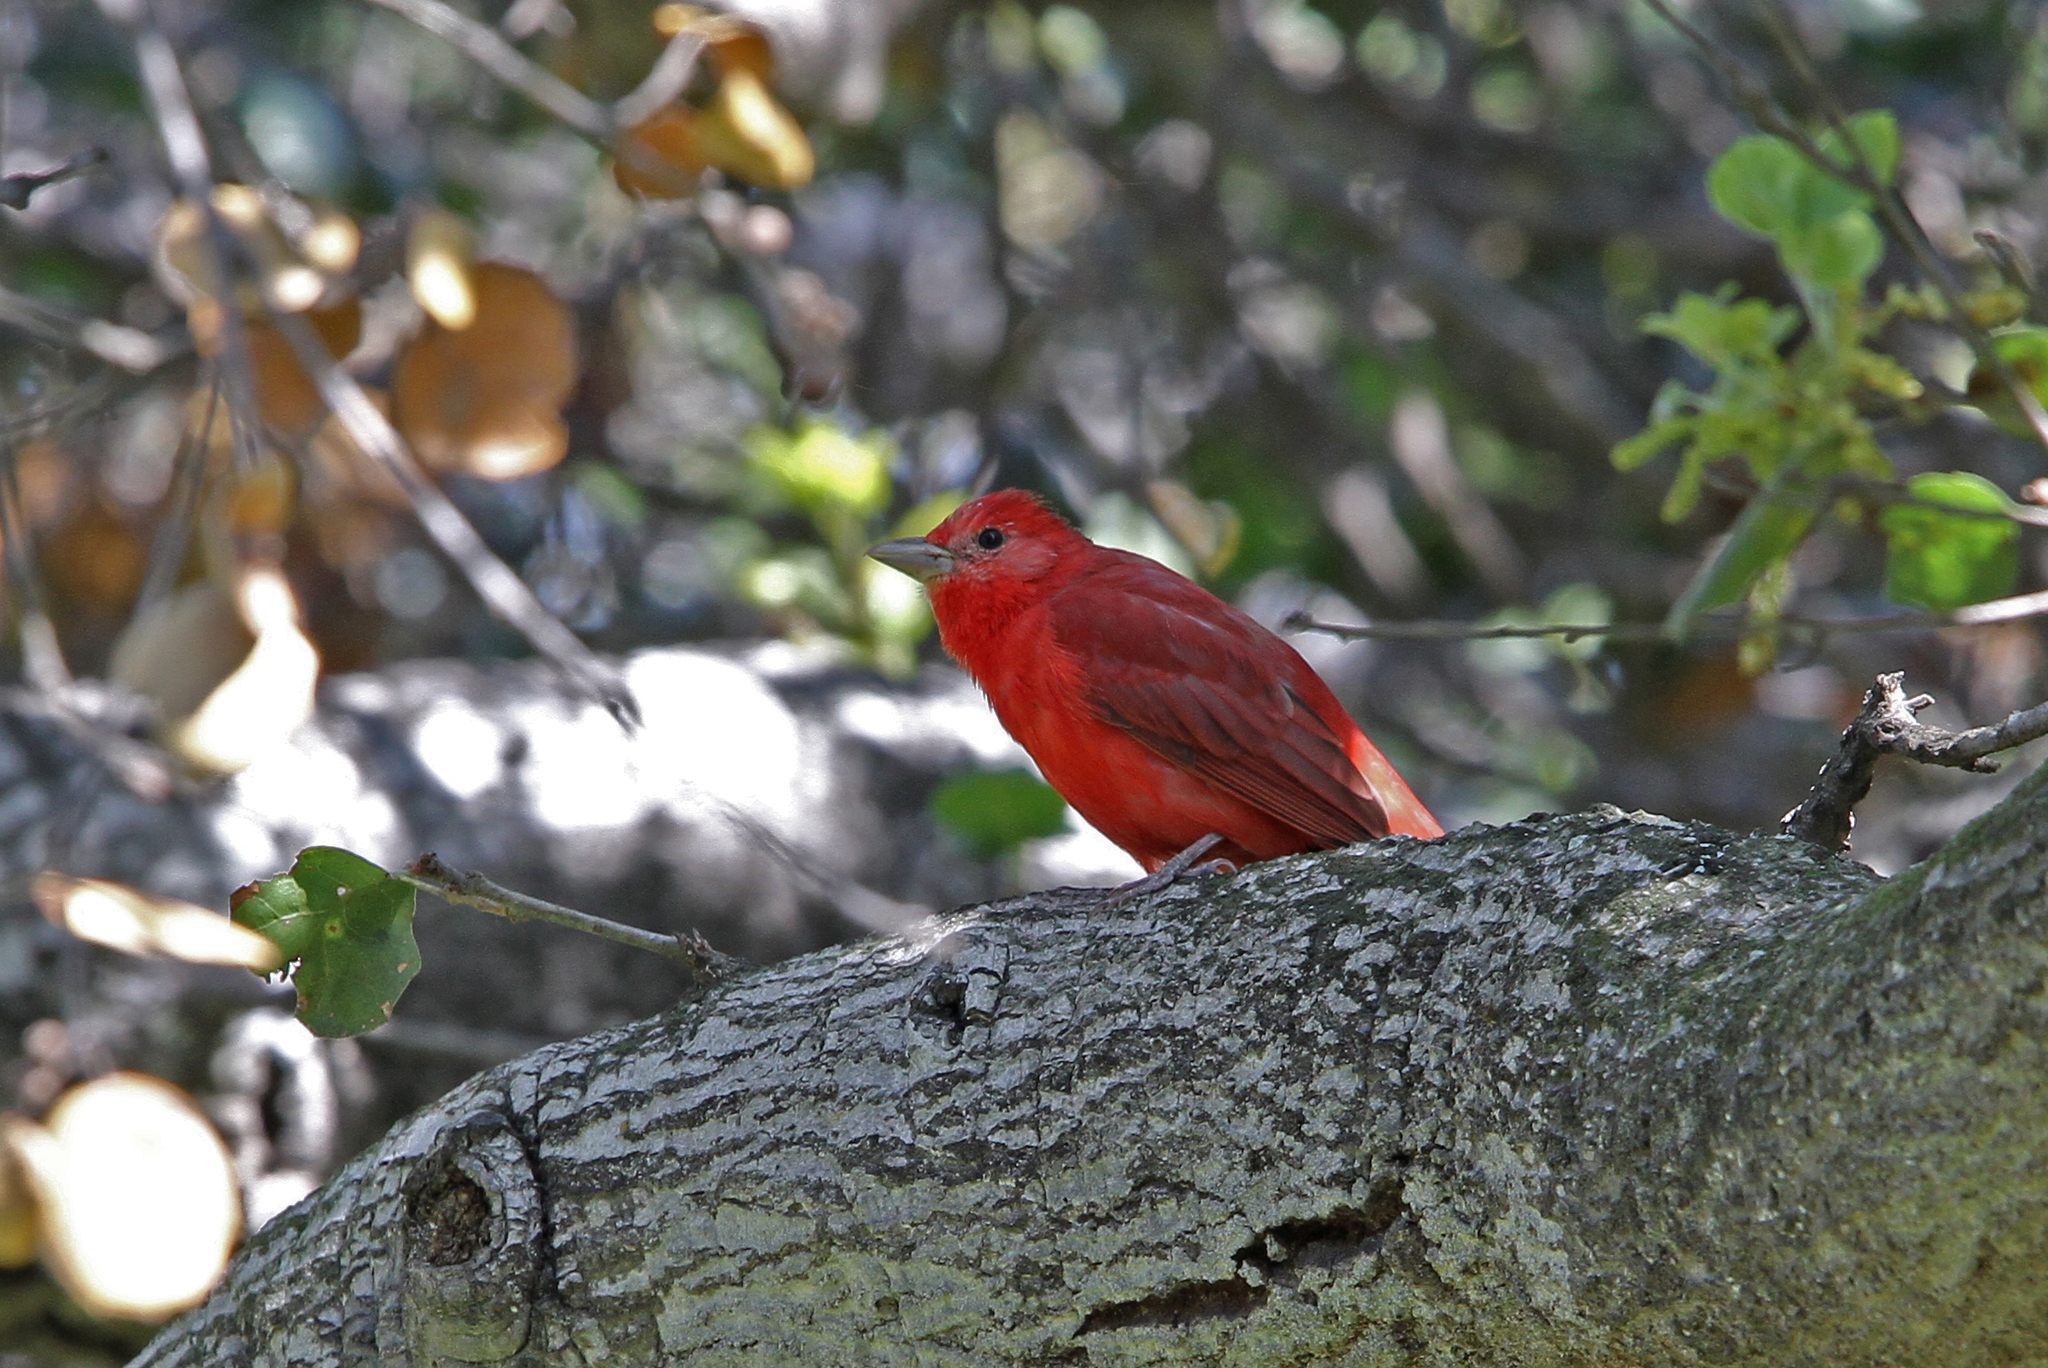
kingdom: Animalia
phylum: Chordata
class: Aves
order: Passeriformes
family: Cardinalidae
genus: Piranga
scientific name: Piranga rubra
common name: Summer tanager
